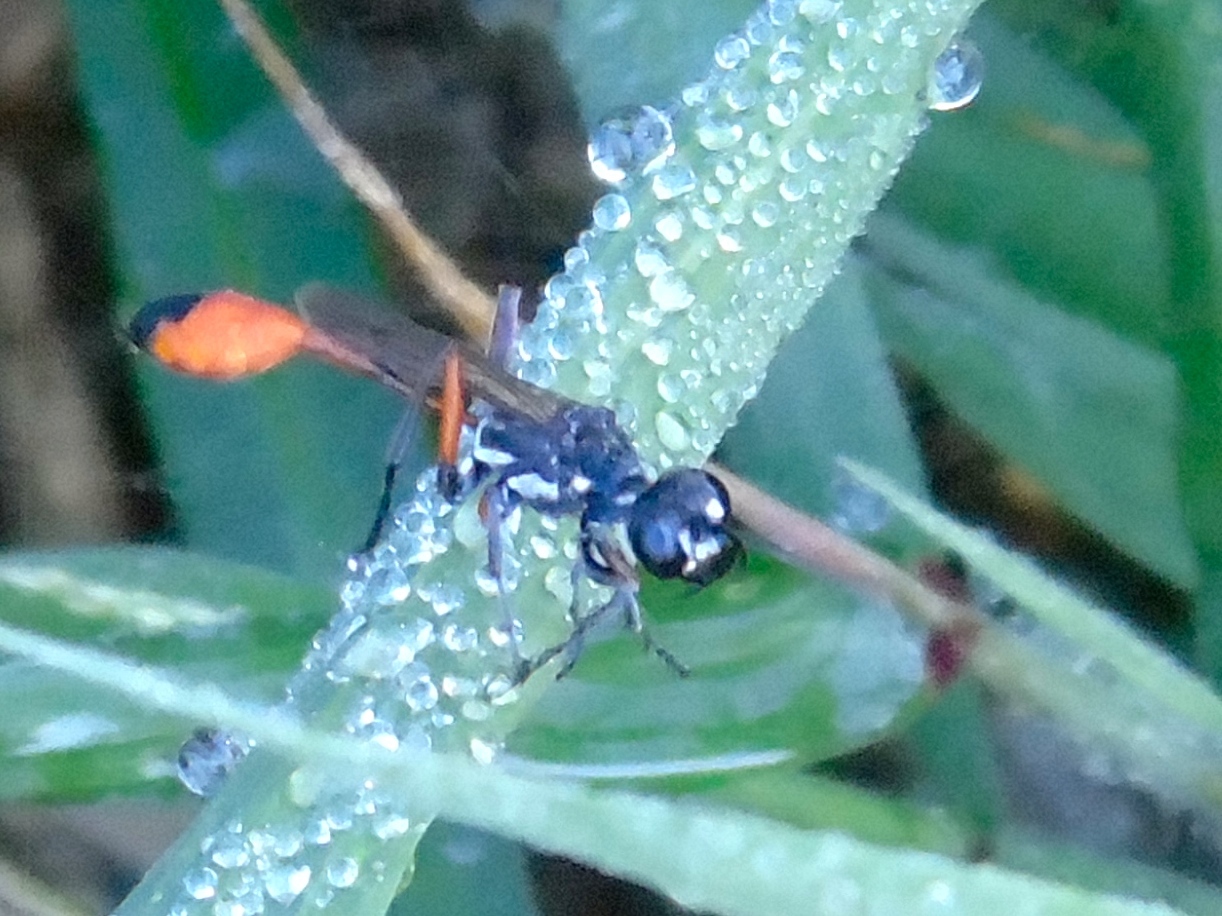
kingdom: Animalia
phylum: Arthropoda
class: Insecta
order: Hymenoptera
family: Sphecidae
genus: Ammophila
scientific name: Ammophila
